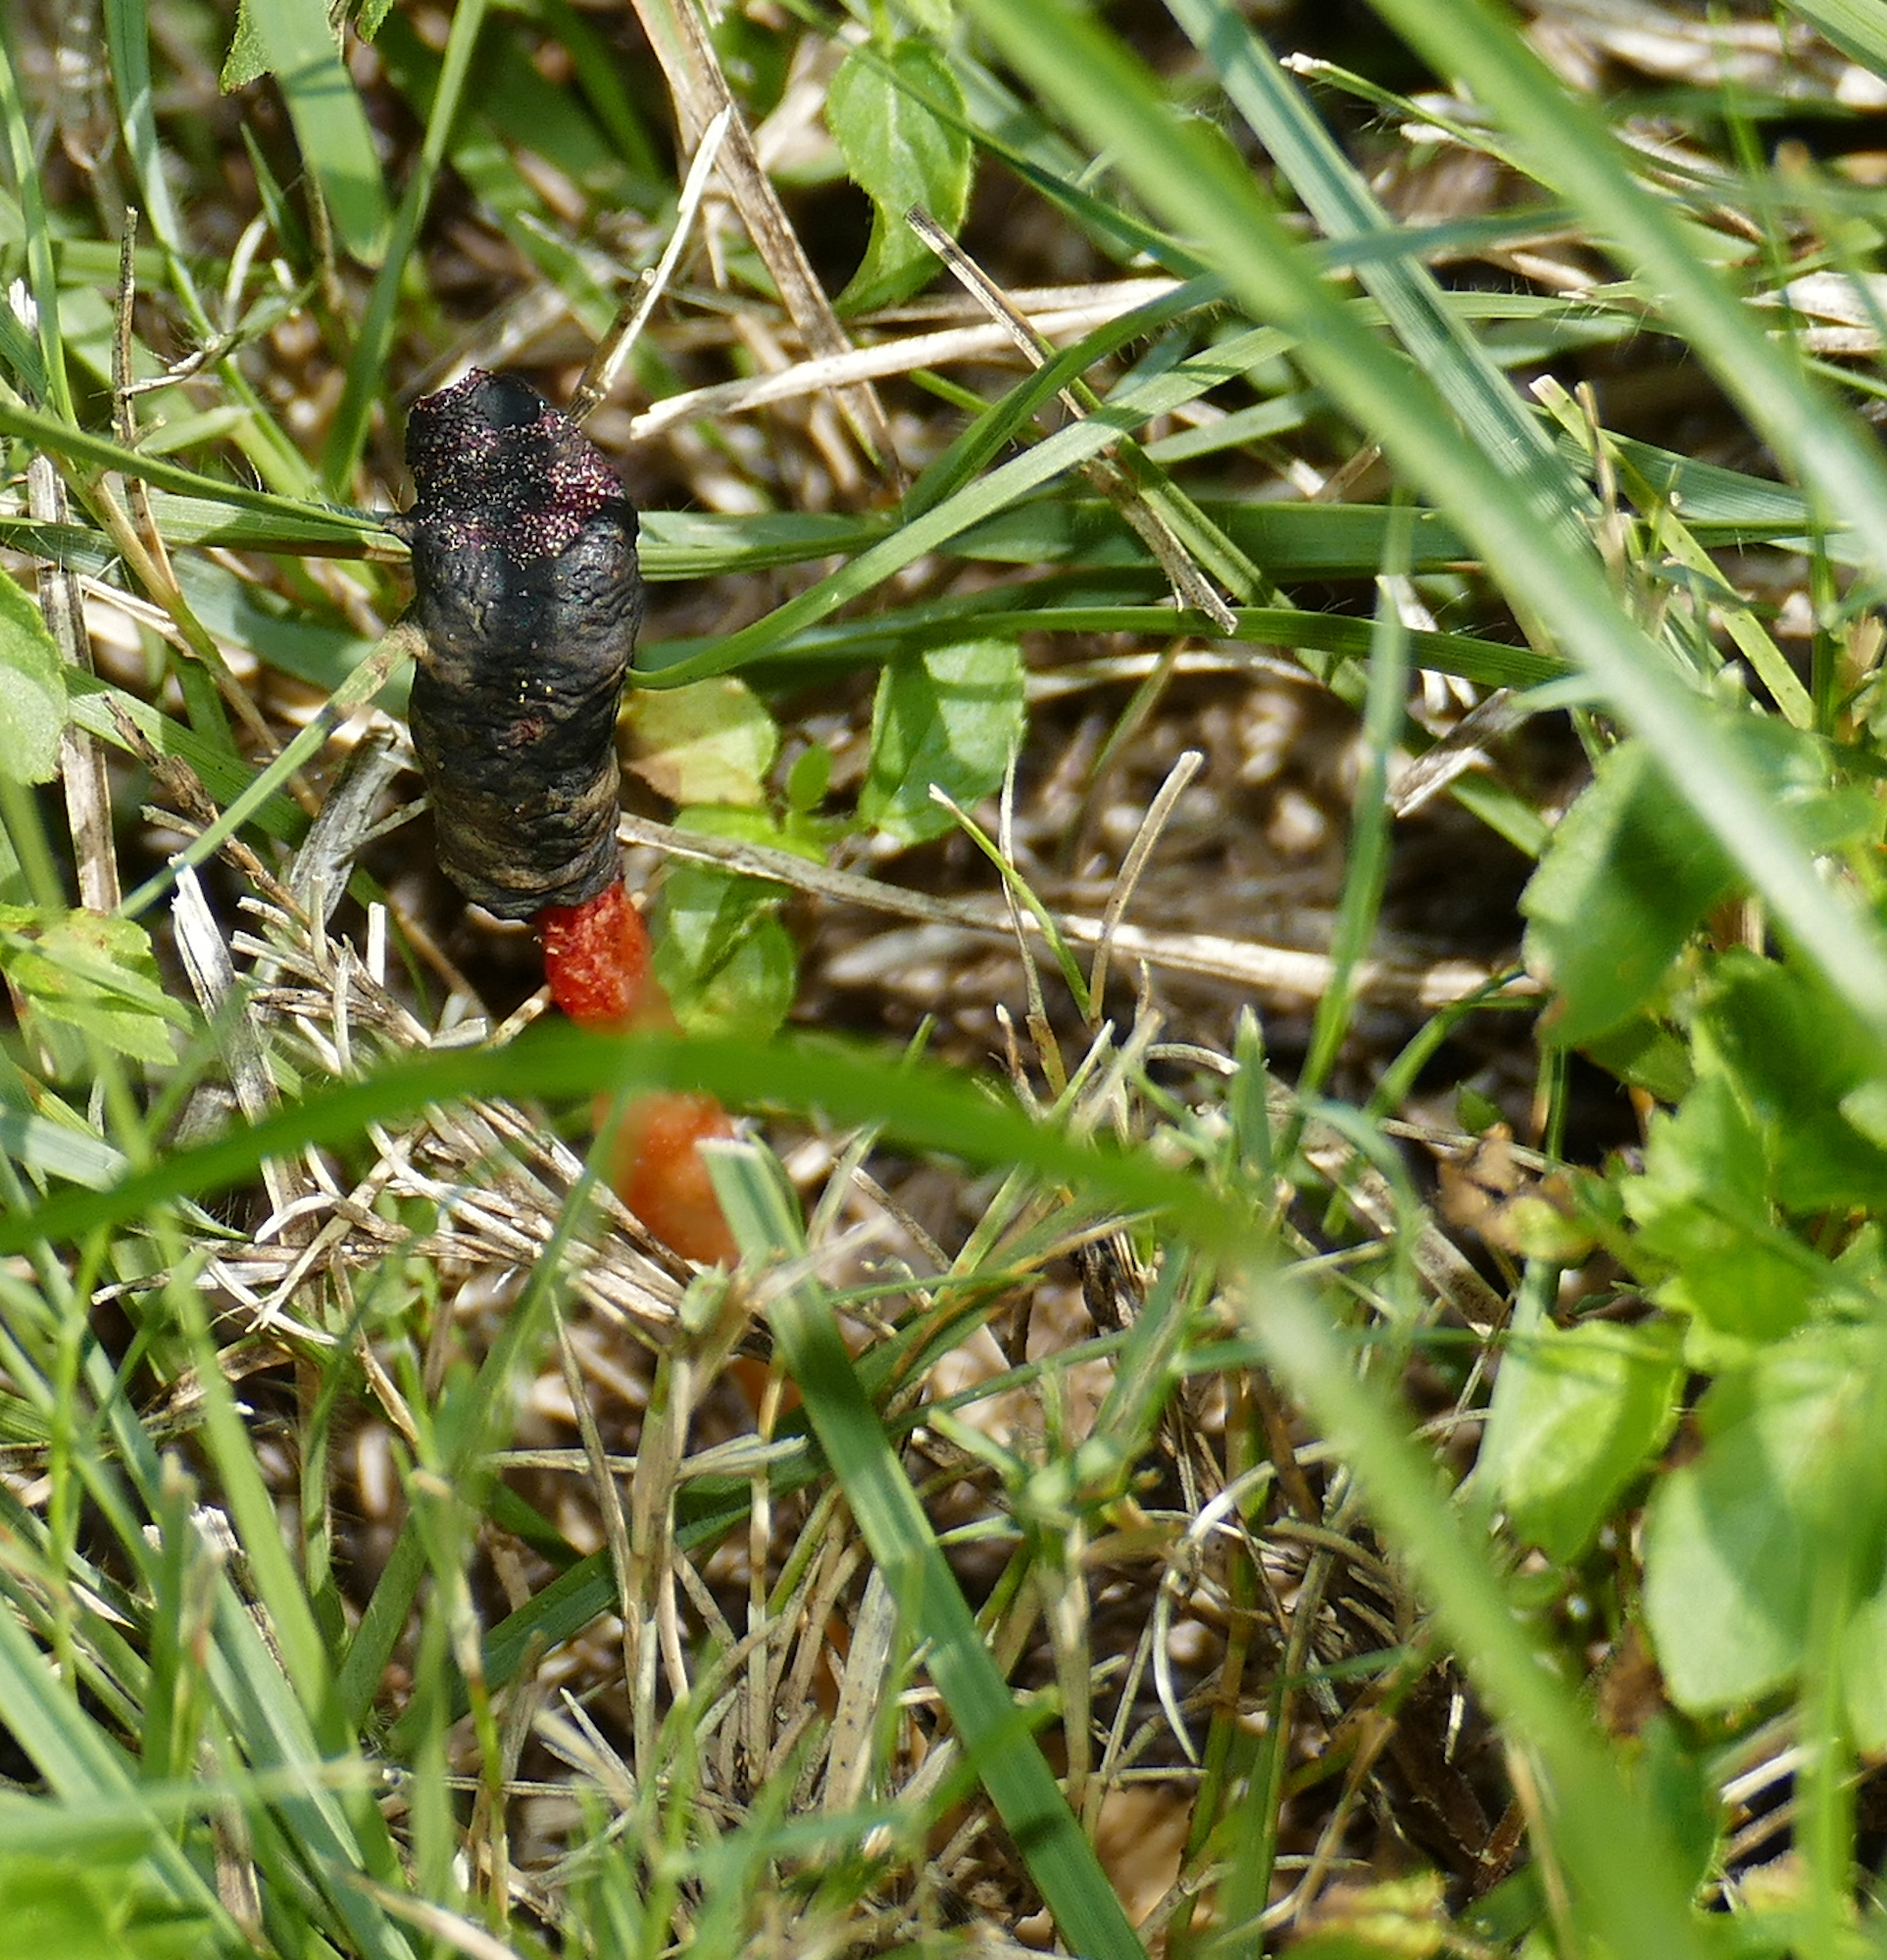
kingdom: Fungi
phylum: Basidiomycota
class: Agaricomycetes
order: Phallales
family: Phallaceae
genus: Phallus
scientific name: Phallus rugulosus
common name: Wrinkly stinkhorn
